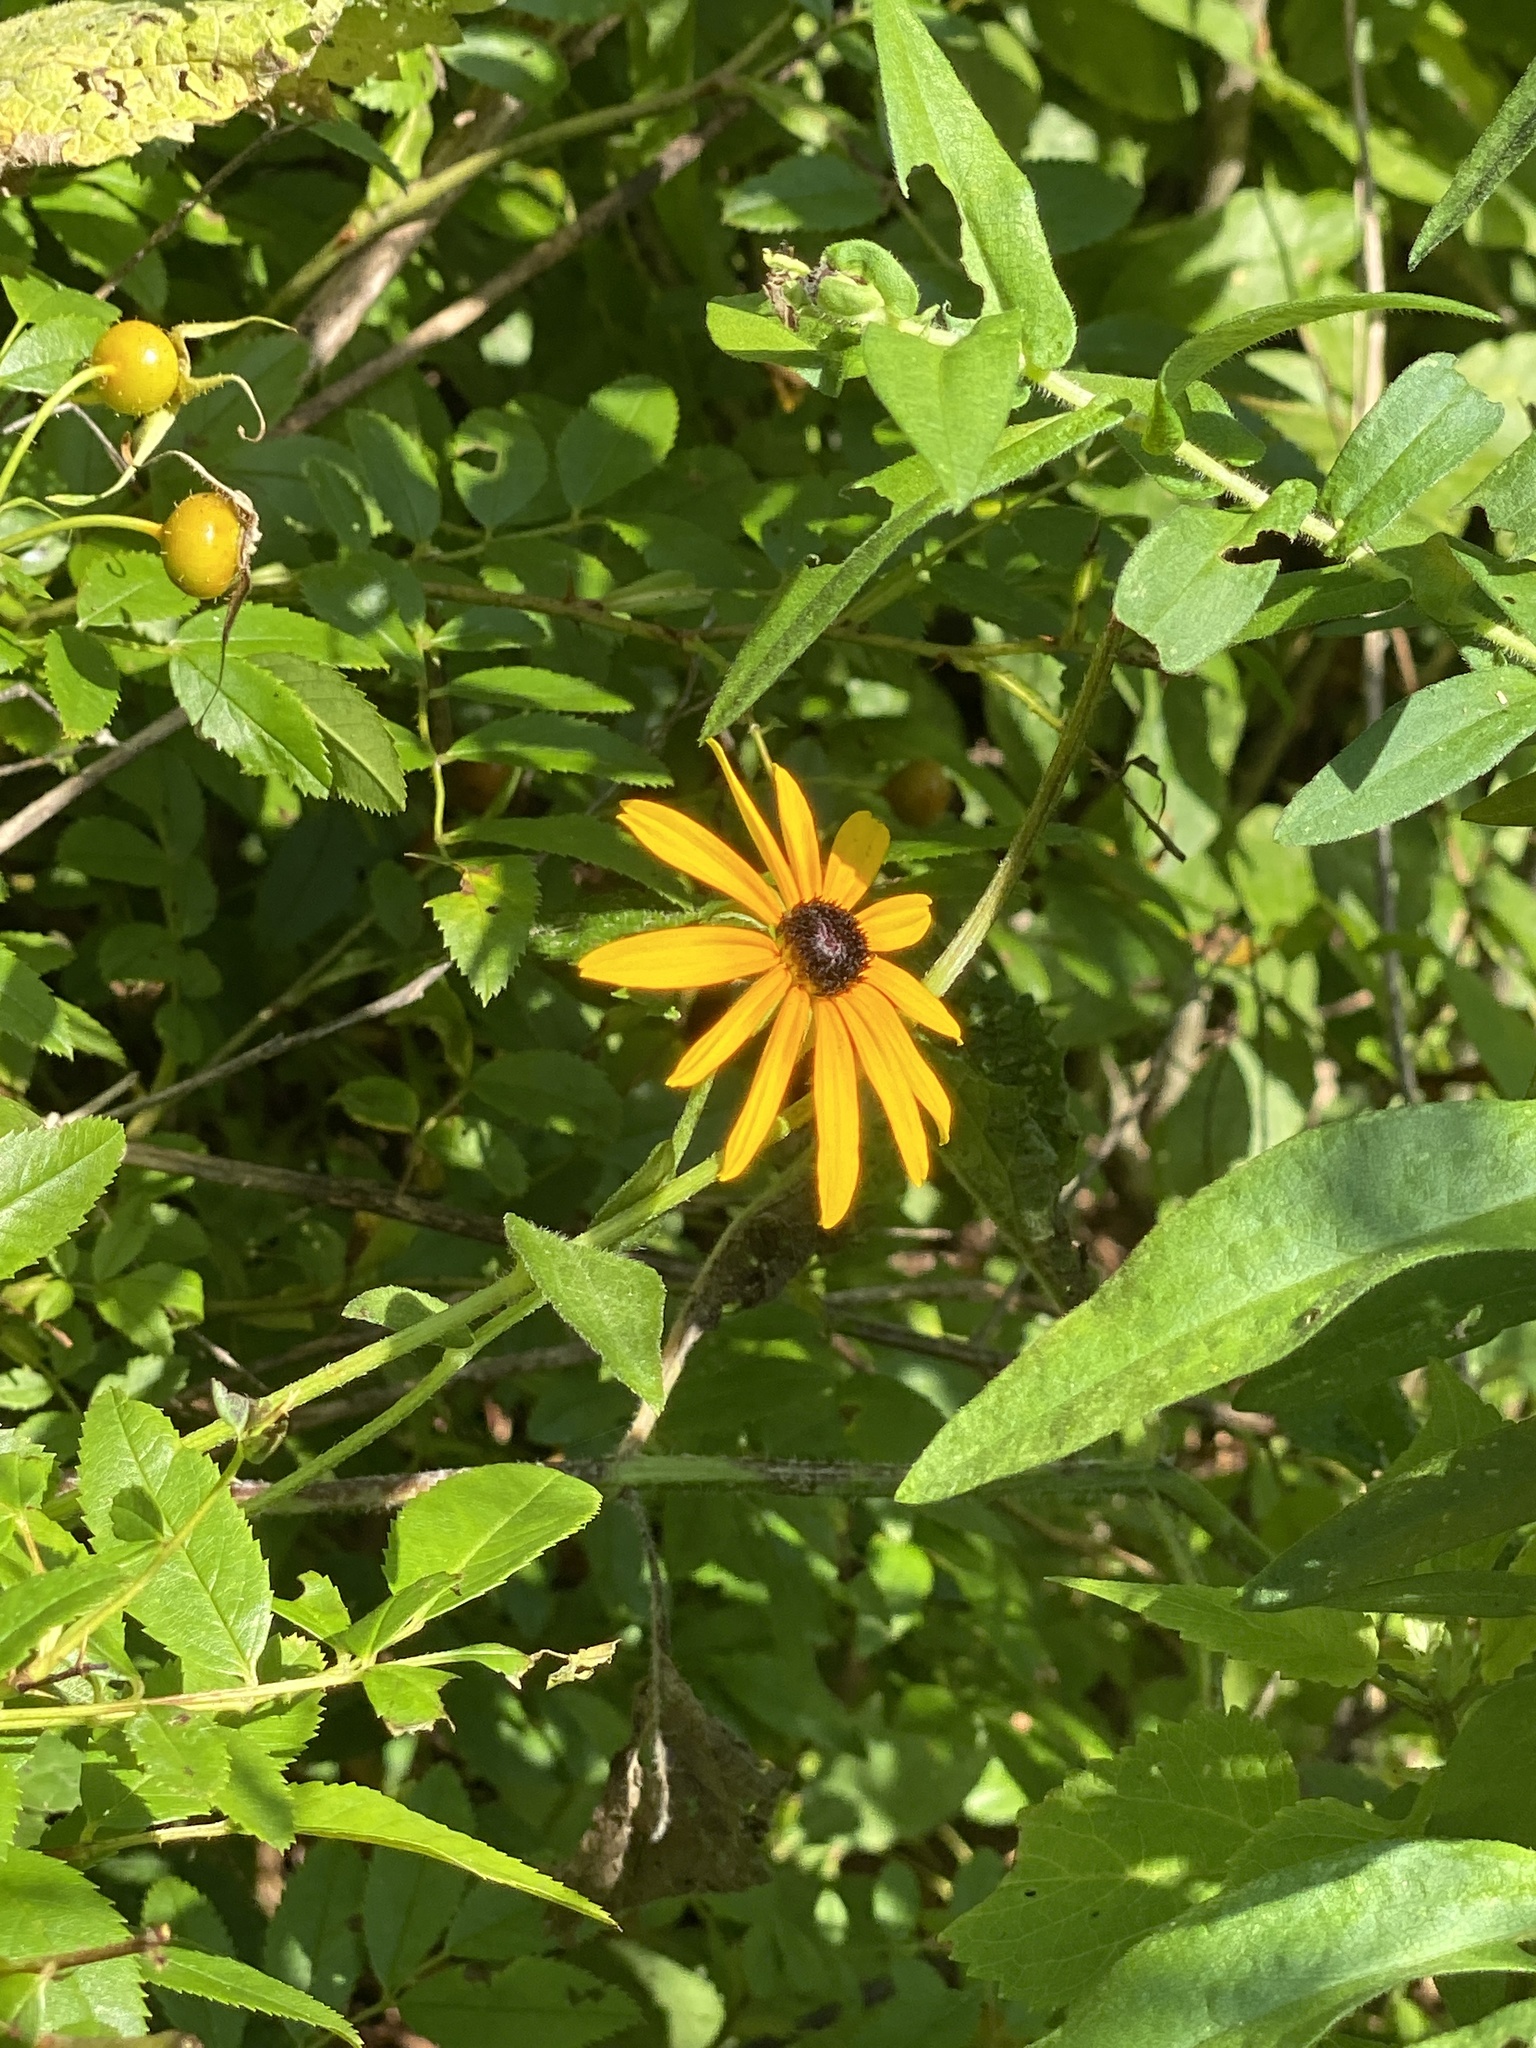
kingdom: Plantae
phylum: Tracheophyta
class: Magnoliopsida
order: Asterales
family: Asteraceae
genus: Rudbeckia
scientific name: Rudbeckia hirta
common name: Black-eyed-susan
